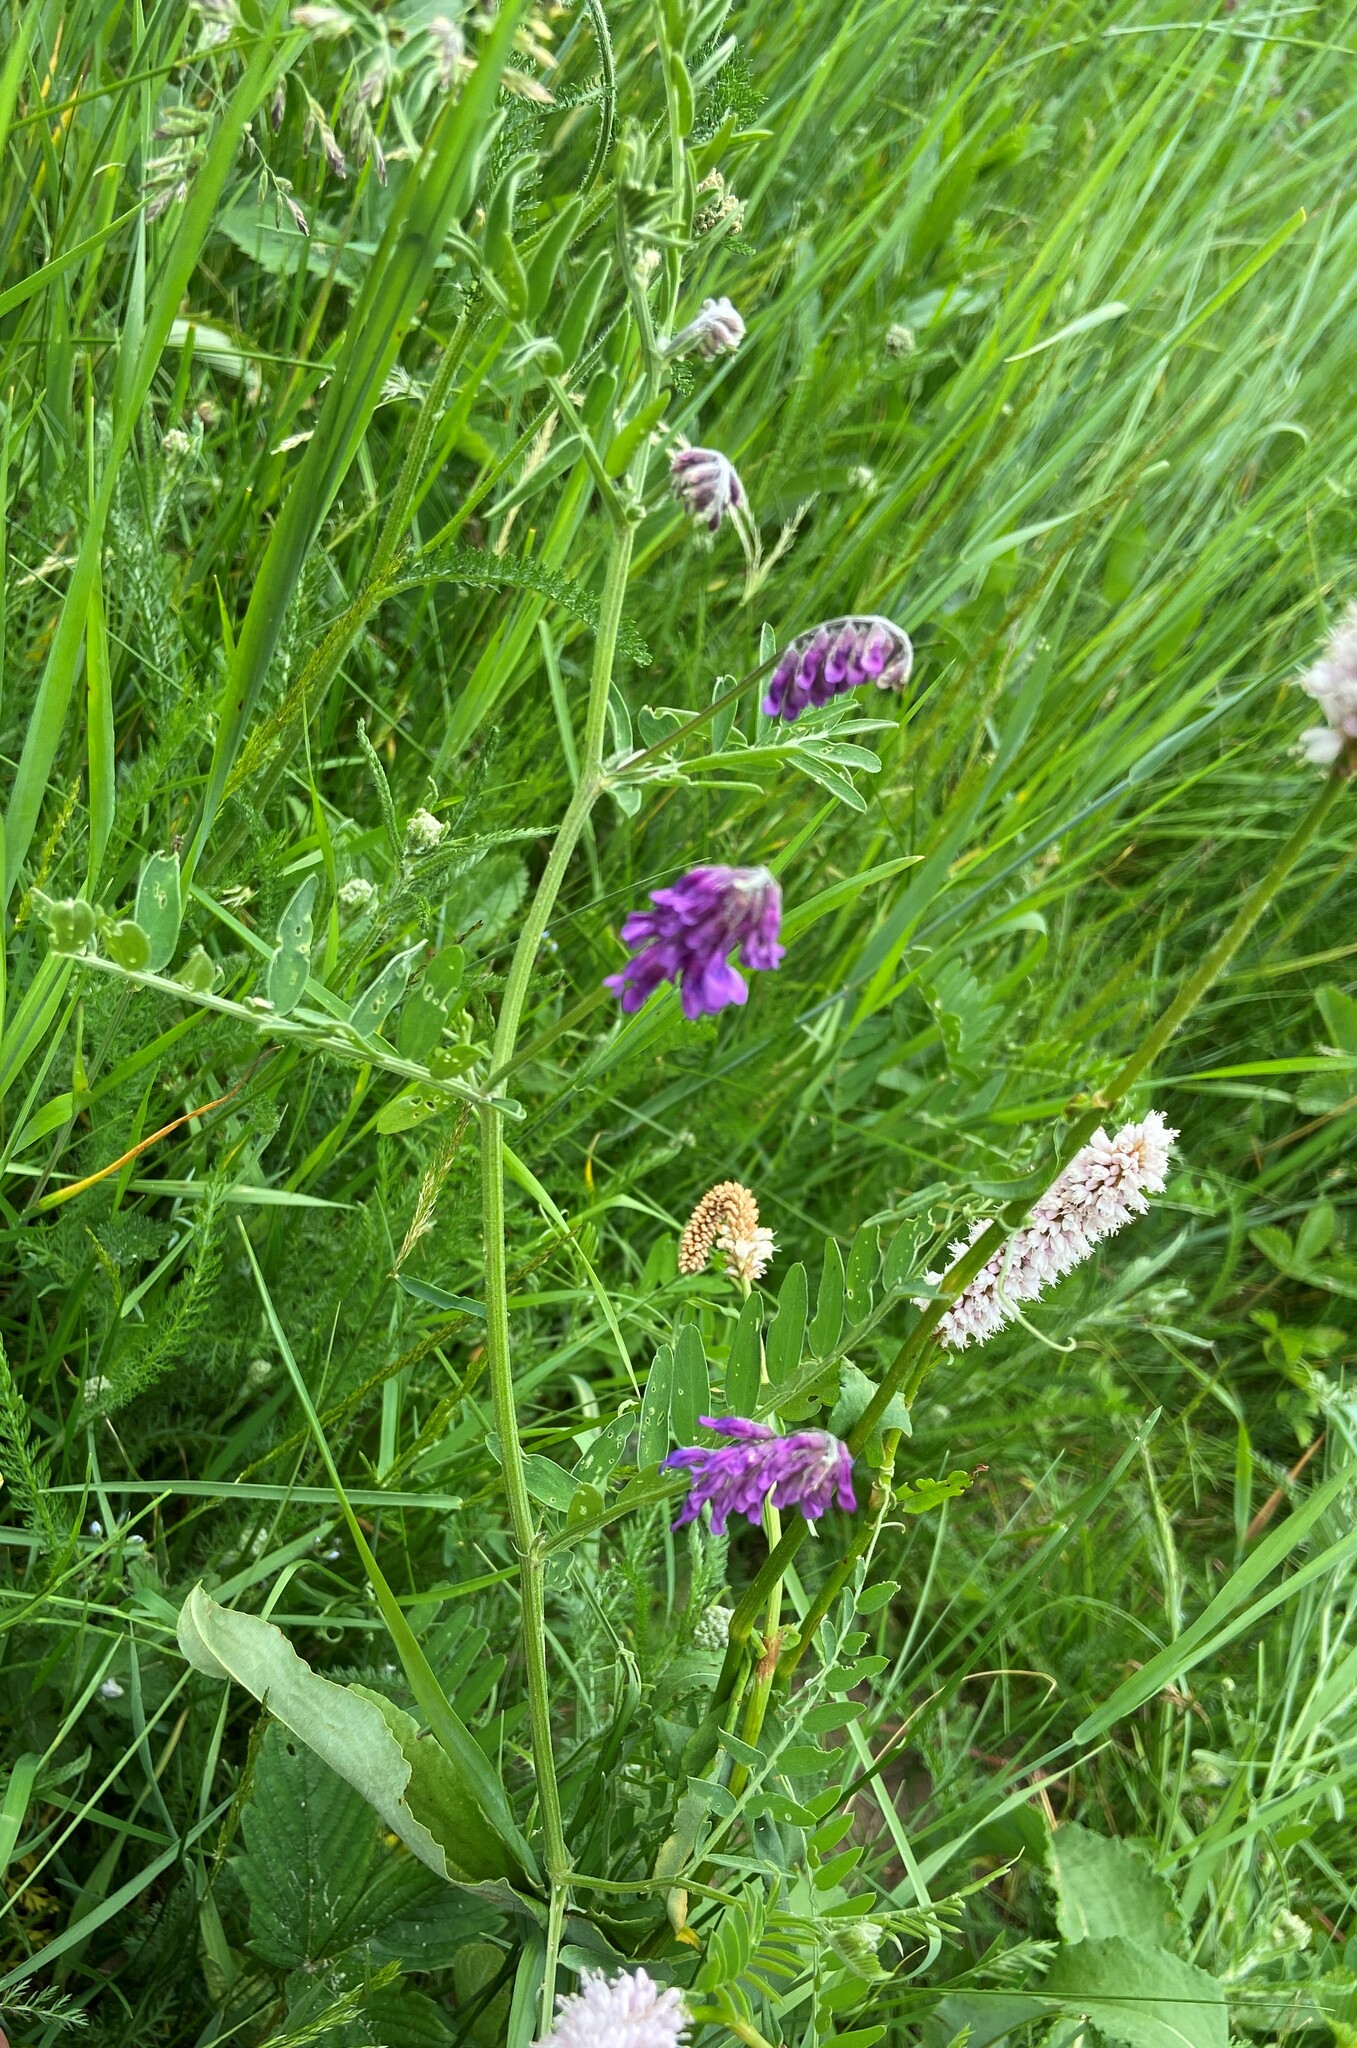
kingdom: Plantae
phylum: Tracheophyta
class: Magnoliopsida
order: Fabales
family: Fabaceae
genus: Vicia
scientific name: Vicia cracca
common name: Bird vetch
